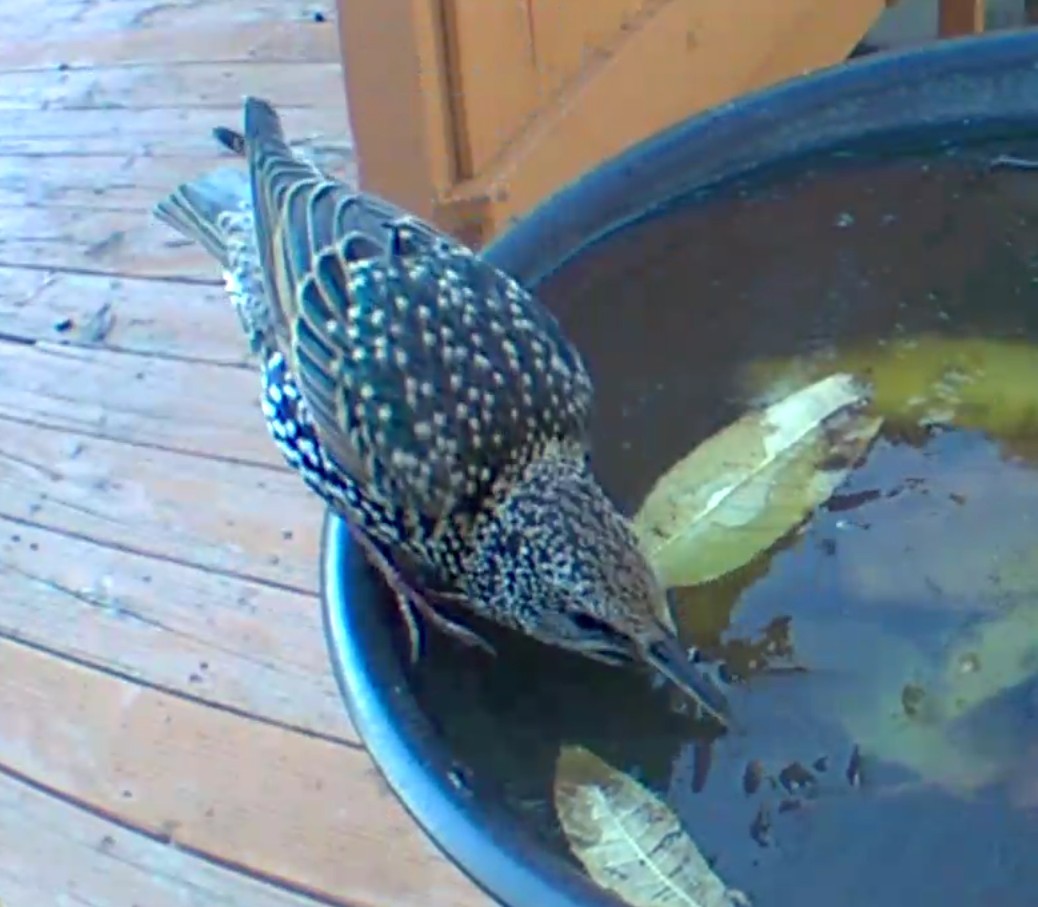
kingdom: Animalia
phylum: Chordata
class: Aves
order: Passeriformes
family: Sturnidae
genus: Sturnus
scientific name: Sturnus vulgaris
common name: Common starling
